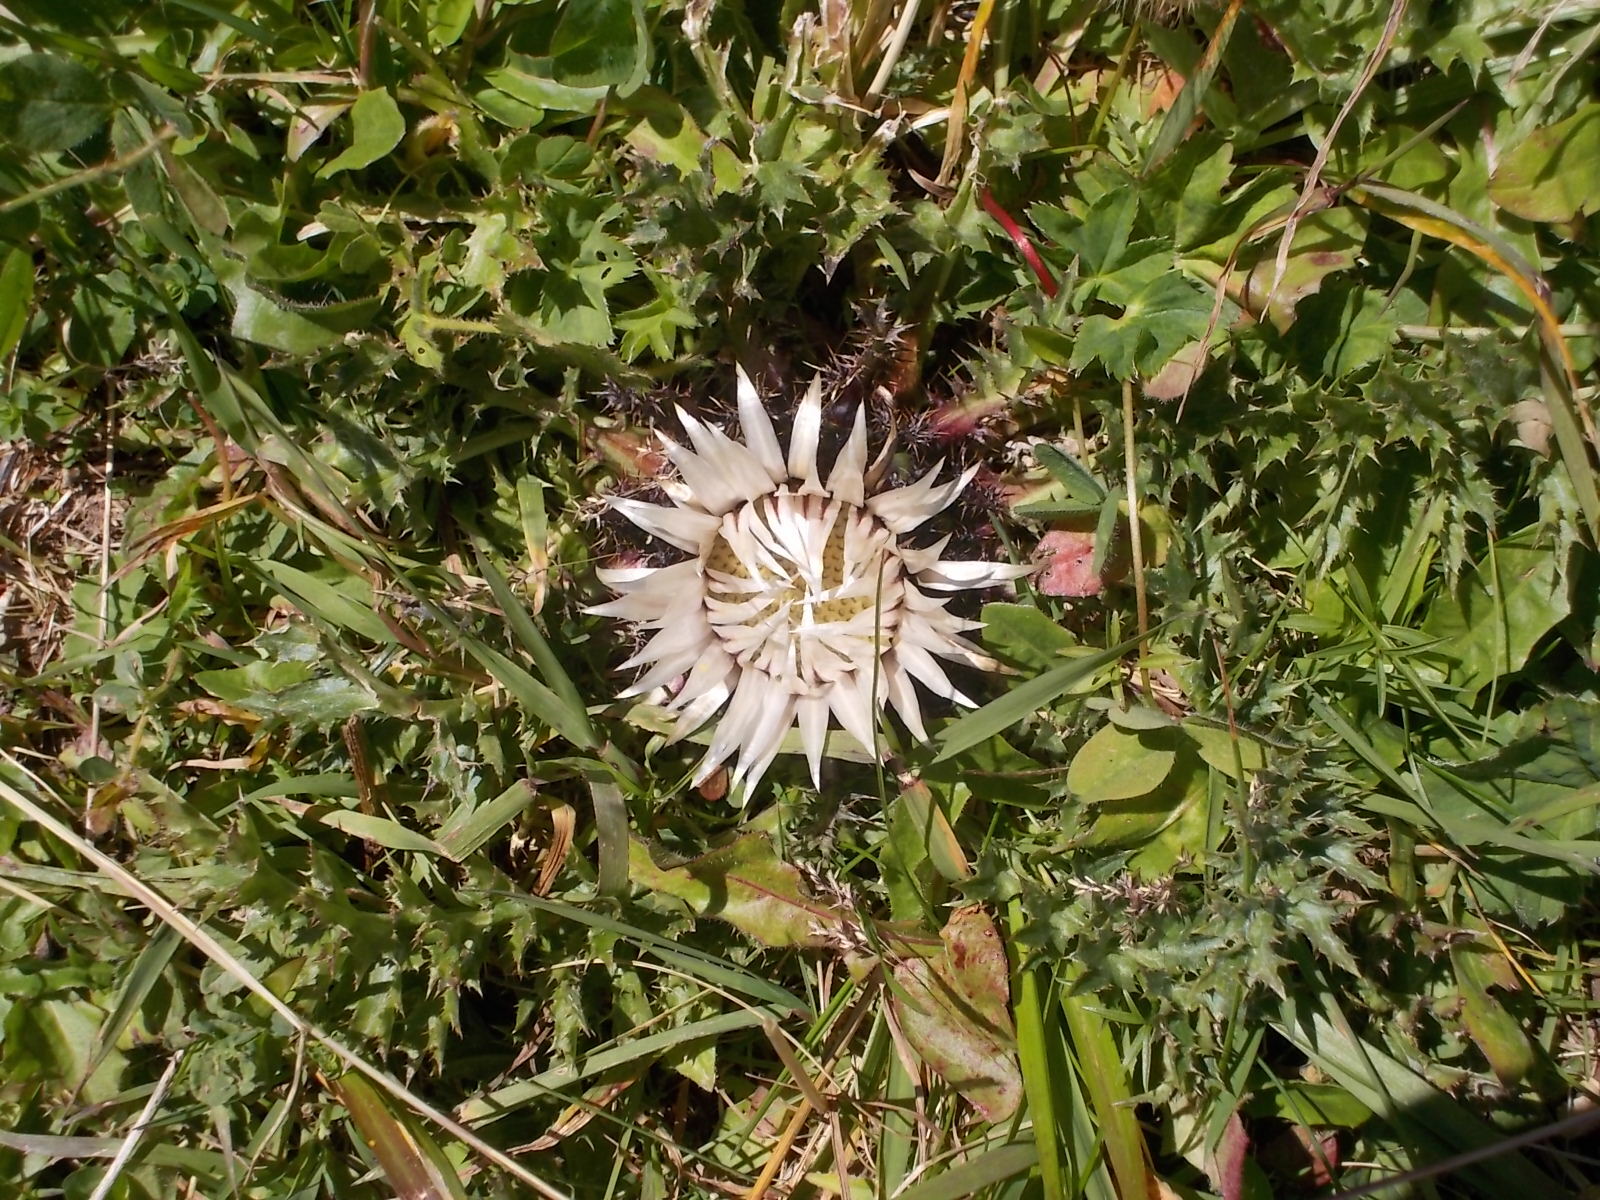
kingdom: Plantae
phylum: Tracheophyta
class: Magnoliopsida
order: Asterales
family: Asteraceae
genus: Carlina
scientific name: Carlina acaulis
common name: Stemless carline thistle
